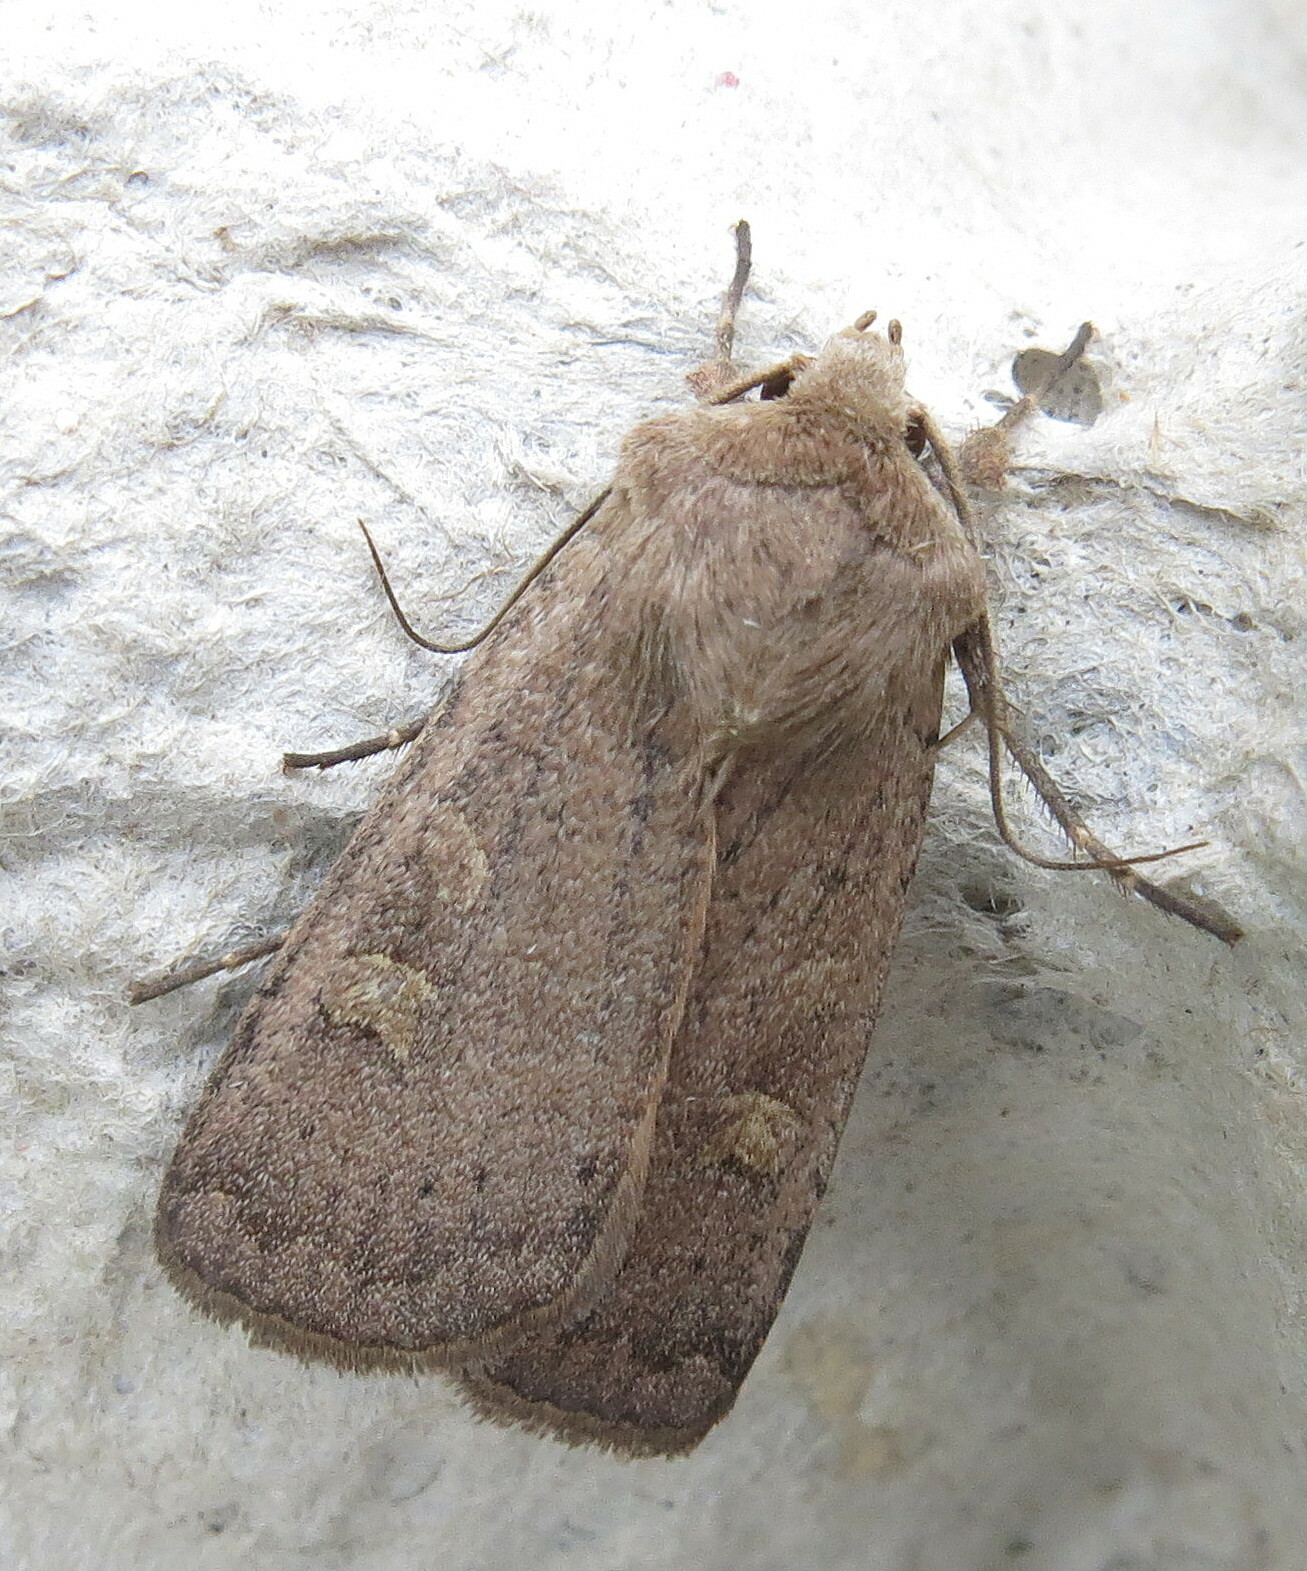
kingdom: Animalia
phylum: Arthropoda
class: Insecta
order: Lepidoptera
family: Noctuidae
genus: Xestia
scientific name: Xestia xanthographa
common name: Square-spot rustic
